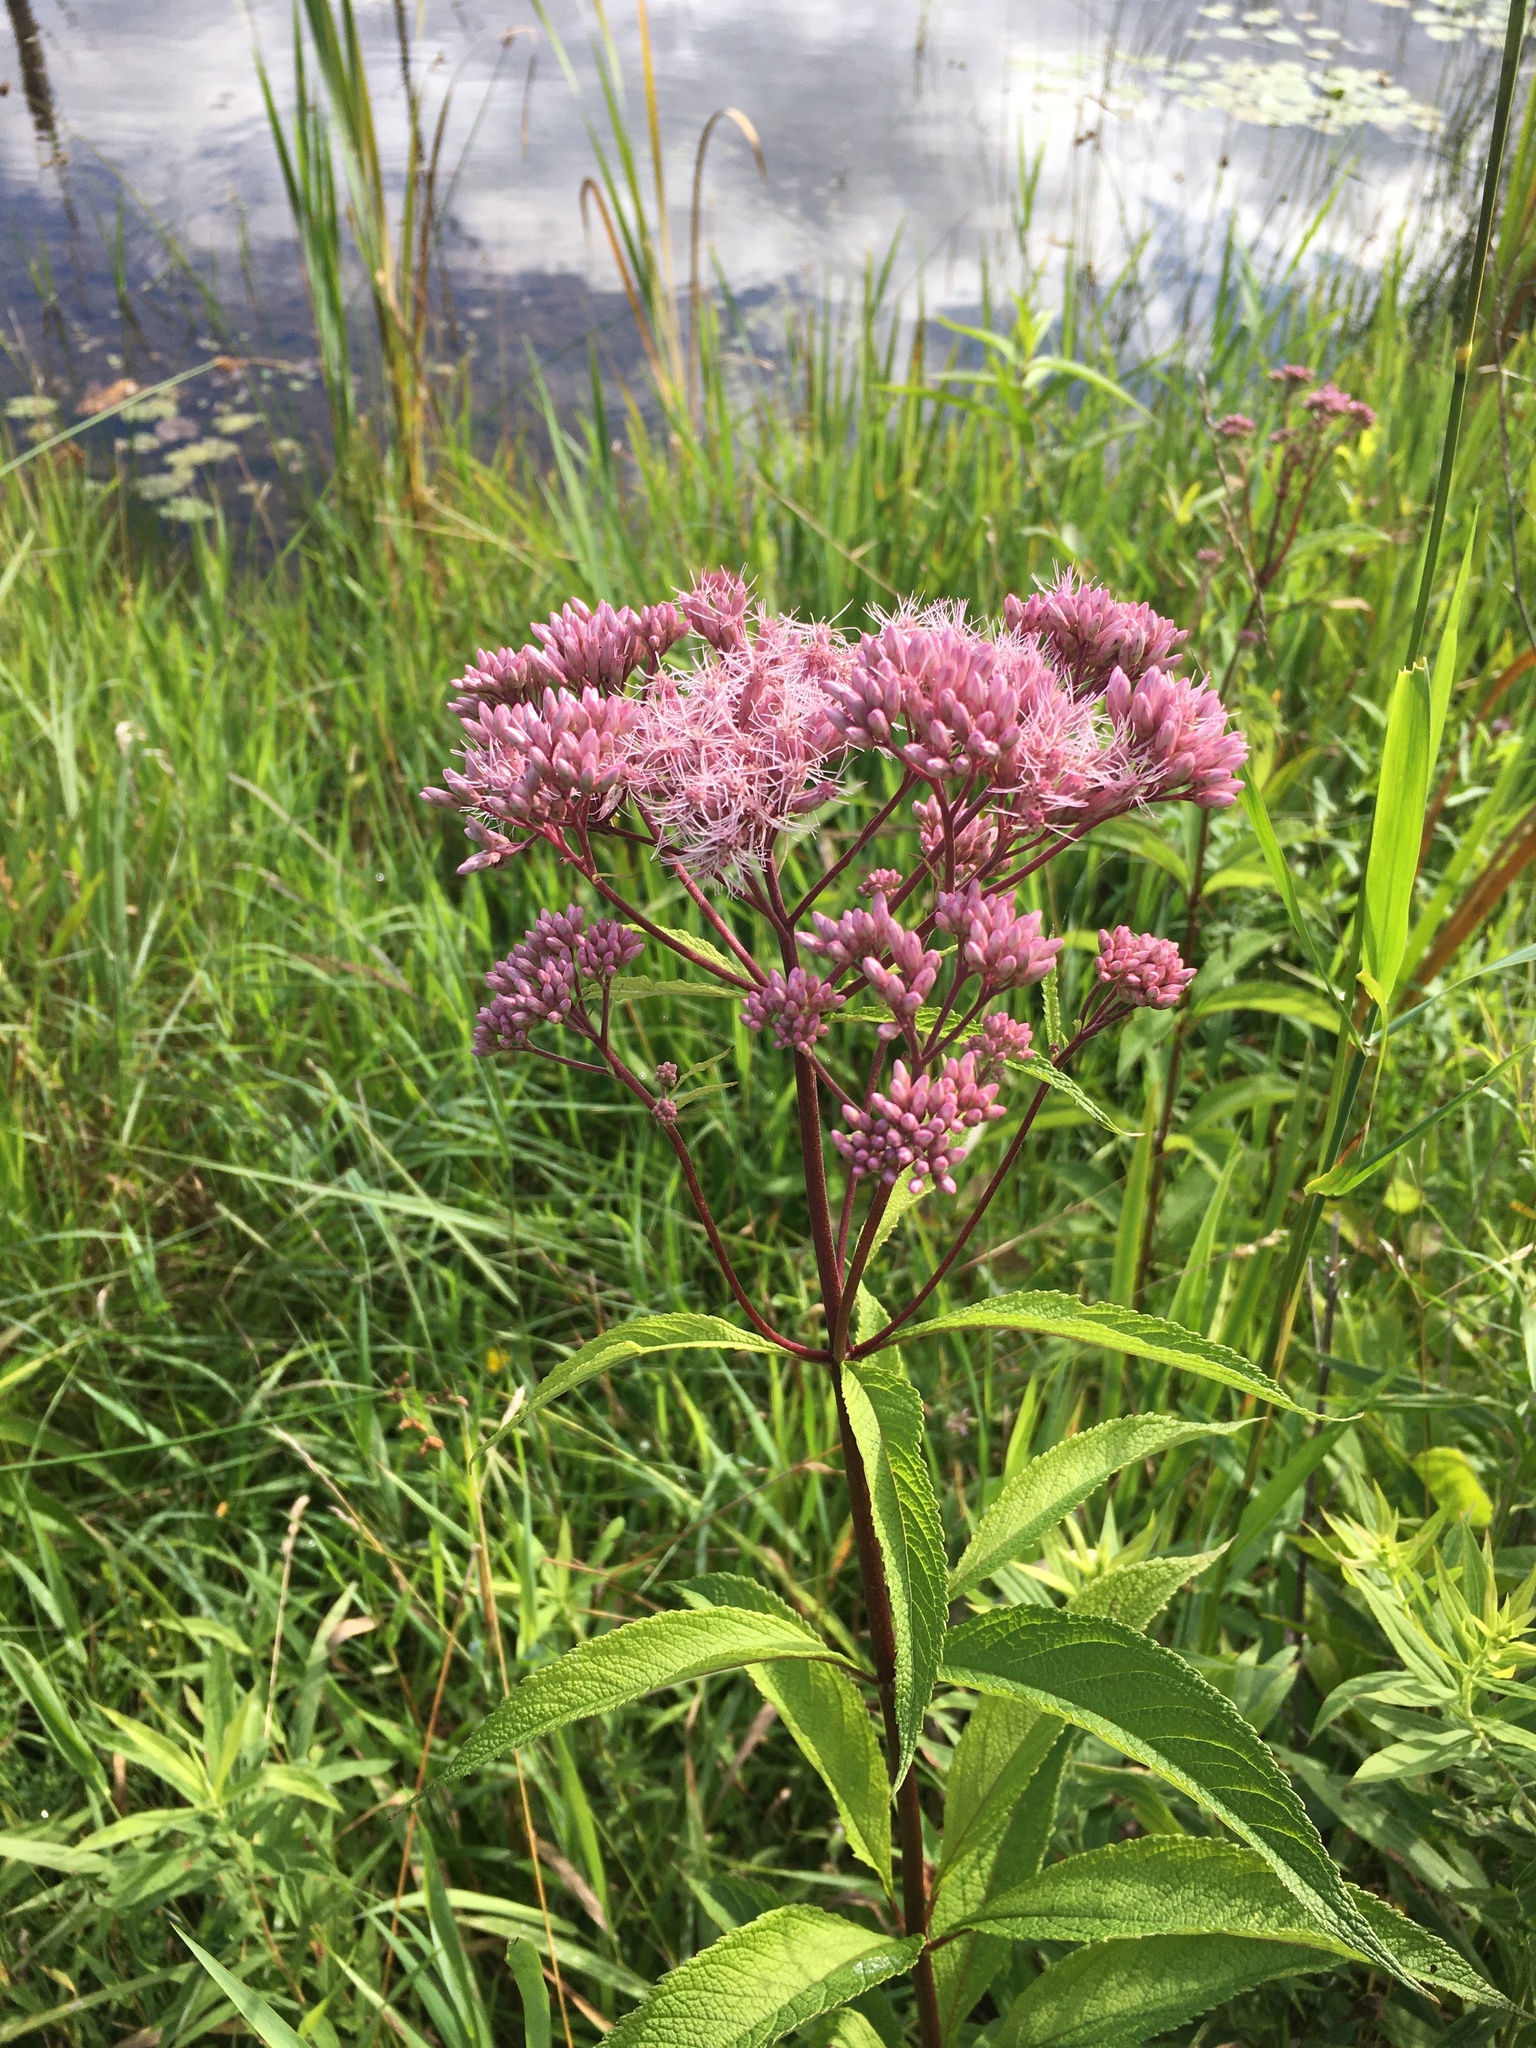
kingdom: Plantae
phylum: Tracheophyta
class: Magnoliopsida
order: Asterales
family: Asteraceae
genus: Eutrochium
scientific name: Eutrochium maculatum
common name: Spotted joe pye weed
